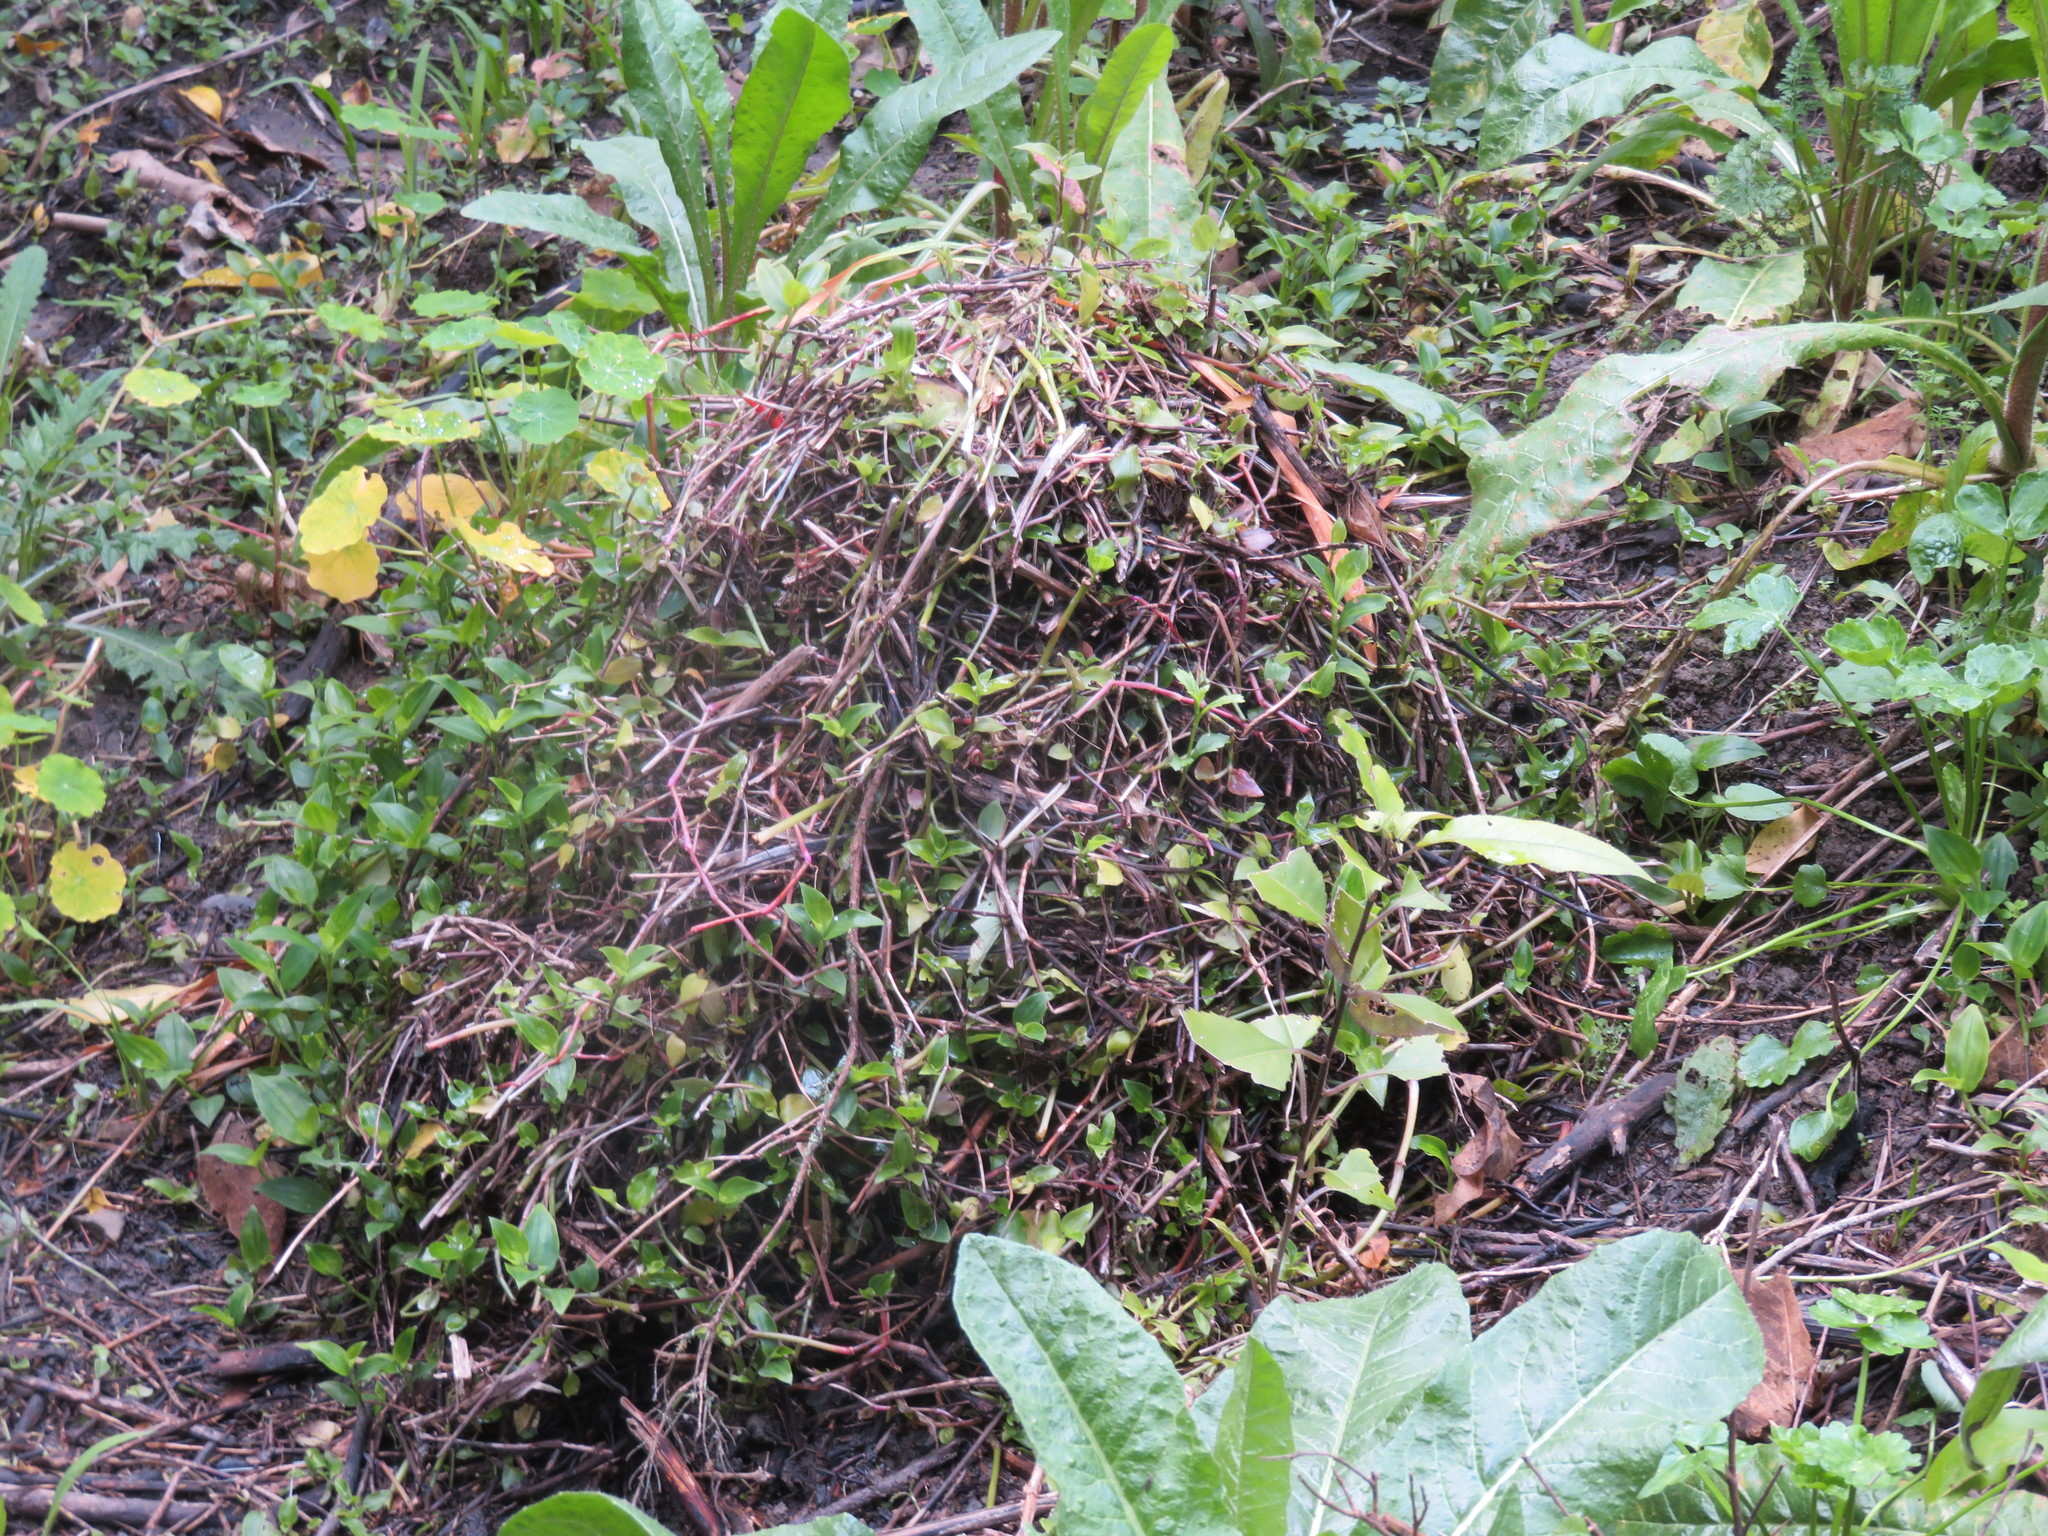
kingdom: Plantae
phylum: Tracheophyta
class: Magnoliopsida
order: Brassicales
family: Tropaeolaceae
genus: Tropaeolum
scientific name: Tropaeolum majus
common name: Nasturtium
